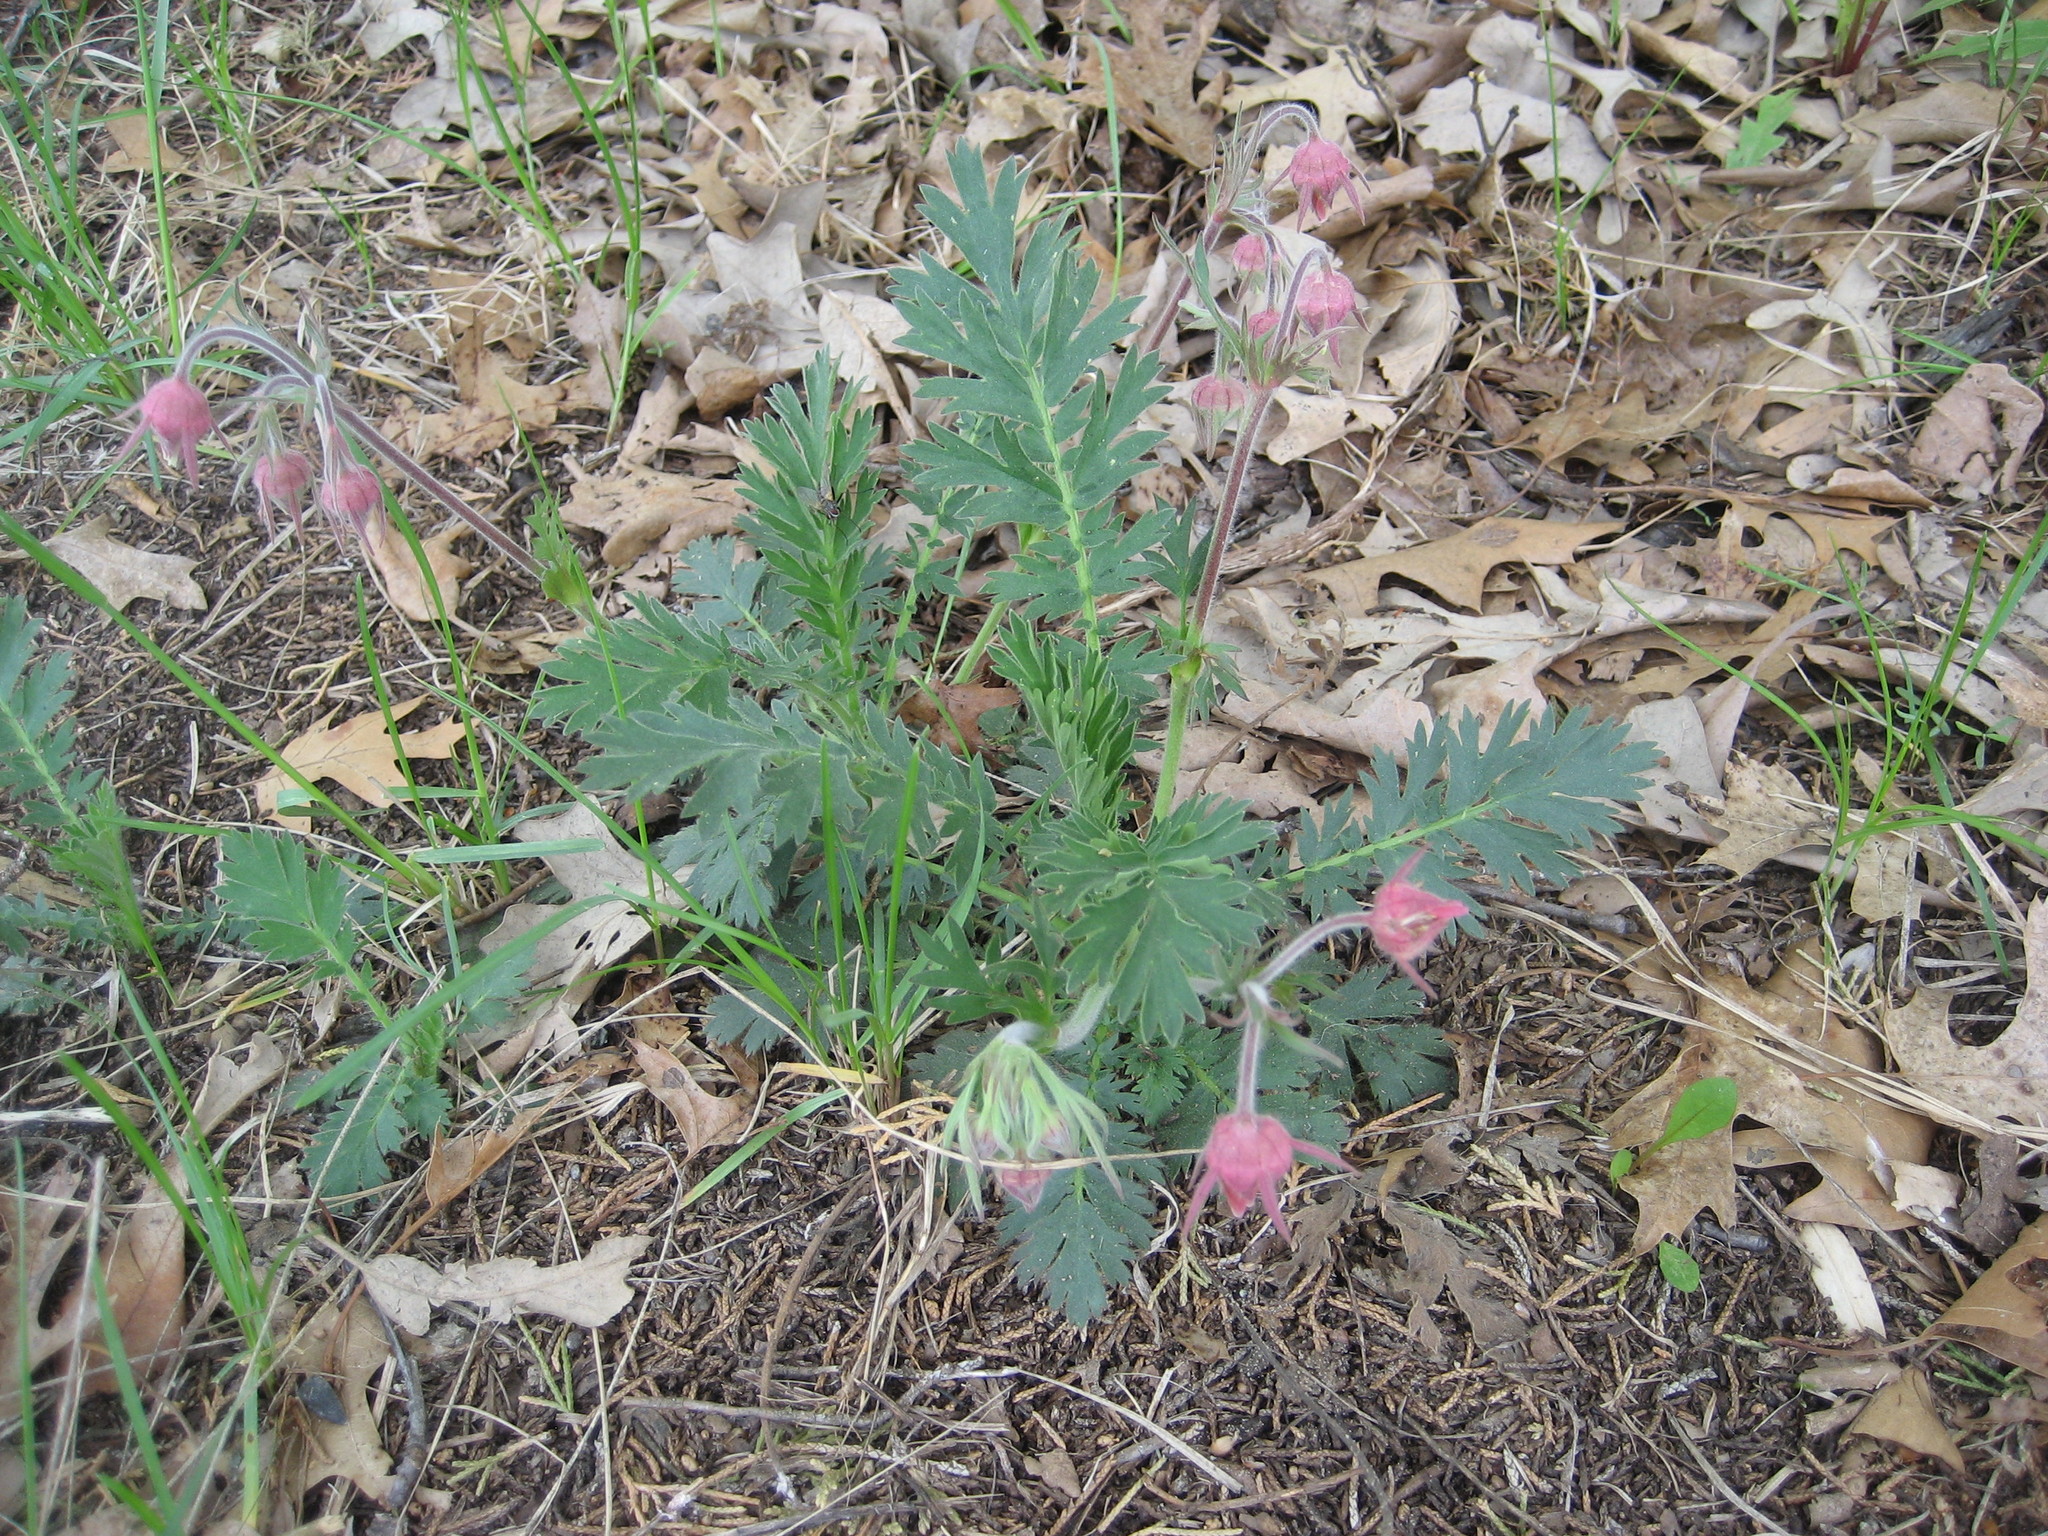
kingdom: Plantae
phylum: Tracheophyta
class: Magnoliopsida
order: Rosales
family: Rosaceae
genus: Geum
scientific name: Geum triflorum
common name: Old man's whiskers
